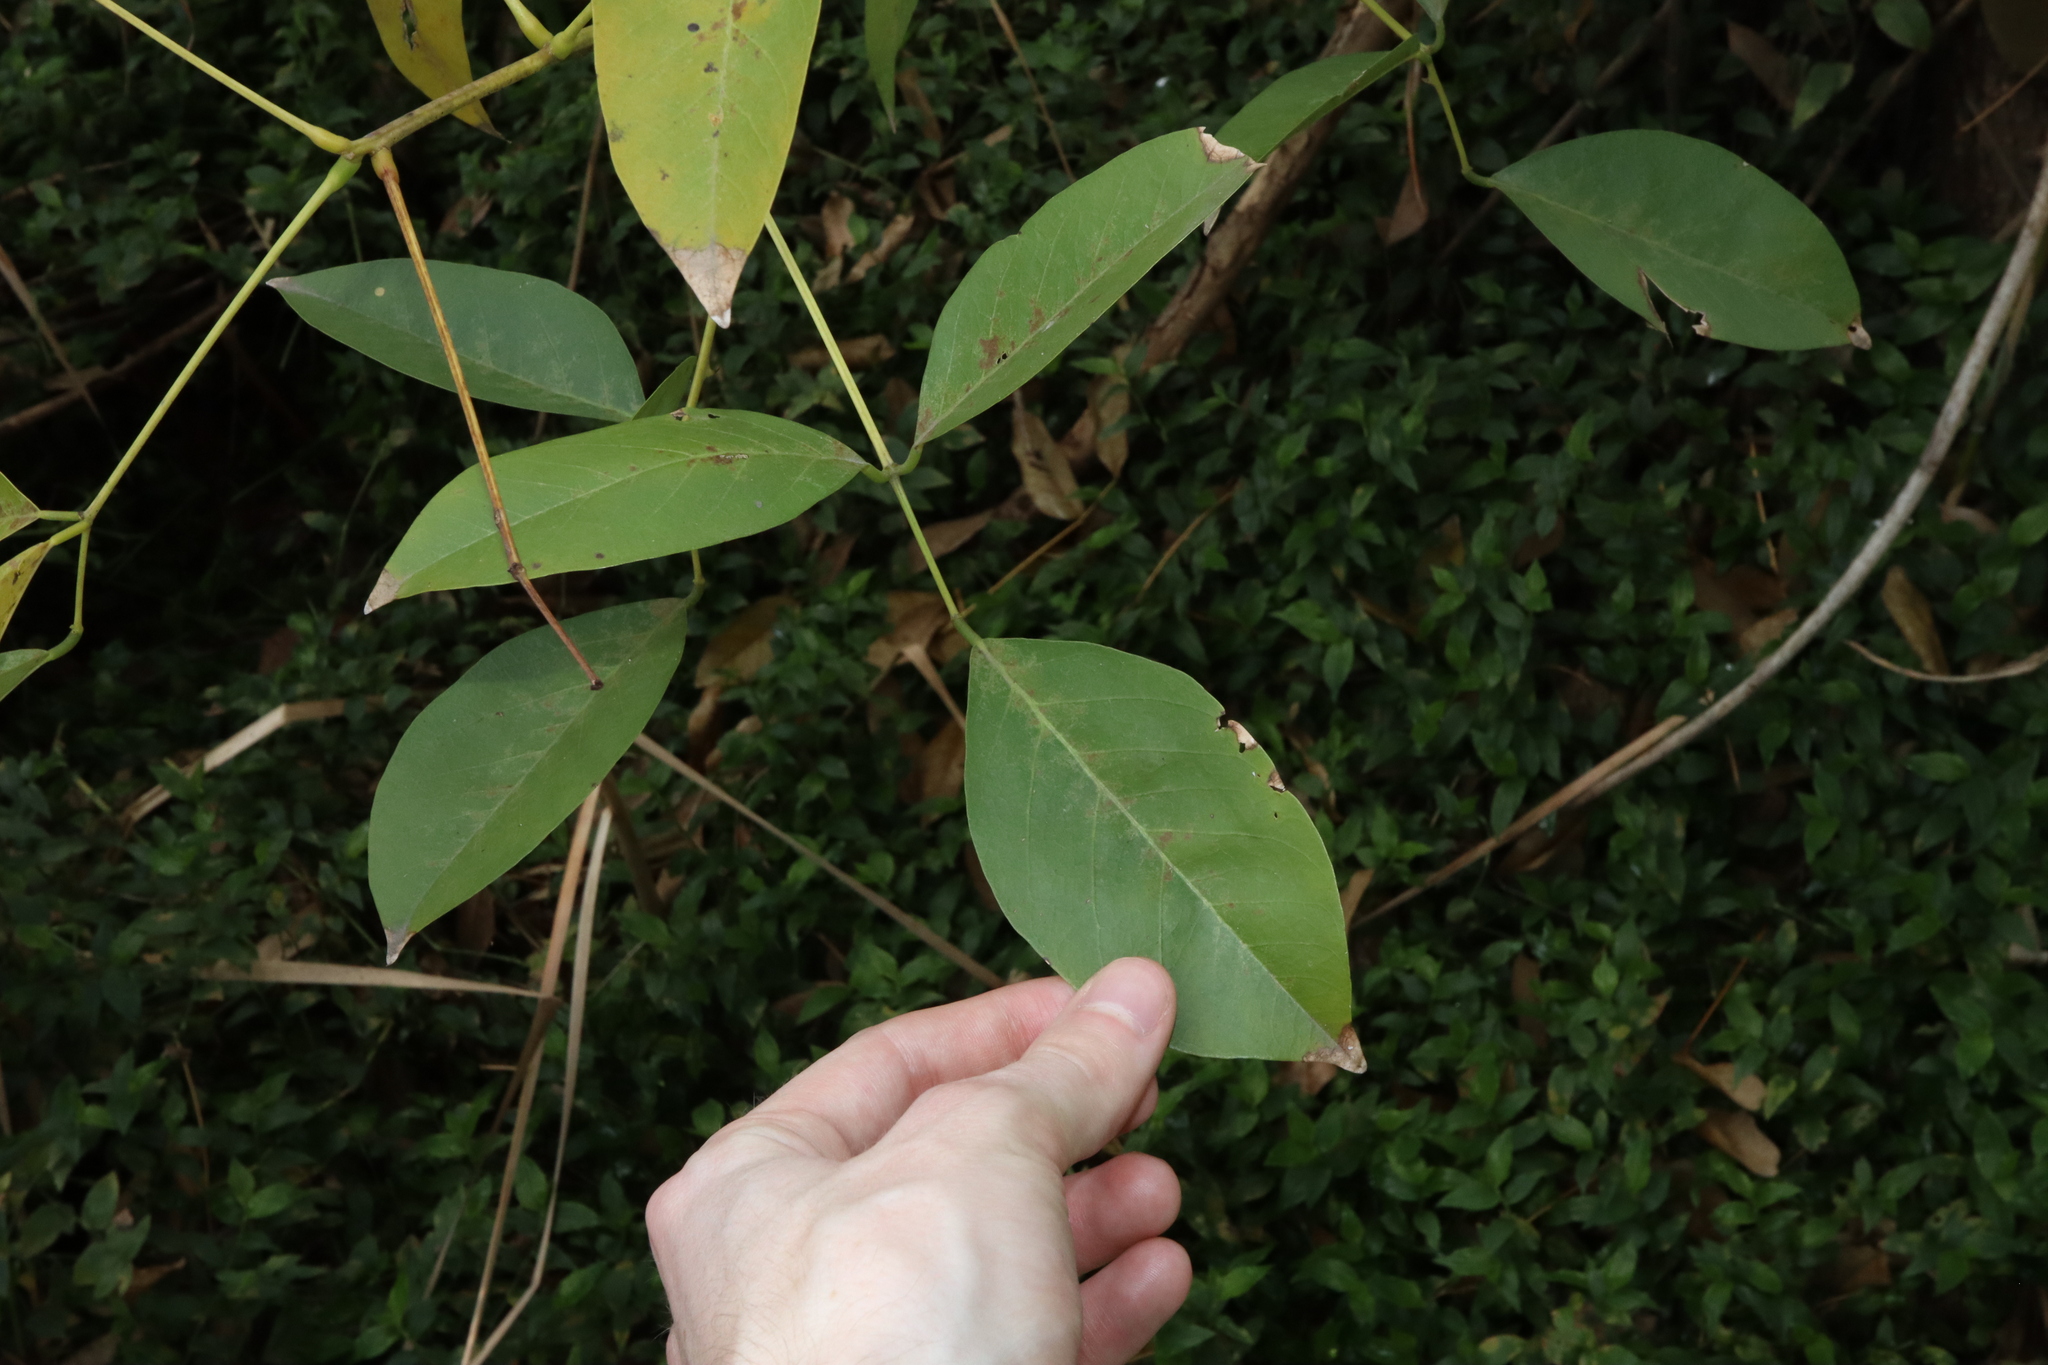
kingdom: Plantae
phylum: Tracheophyta
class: Magnoliopsida
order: Fabales
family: Fabaceae
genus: Erythrina
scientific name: Erythrina crista-galli
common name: Cockspur coral tree
